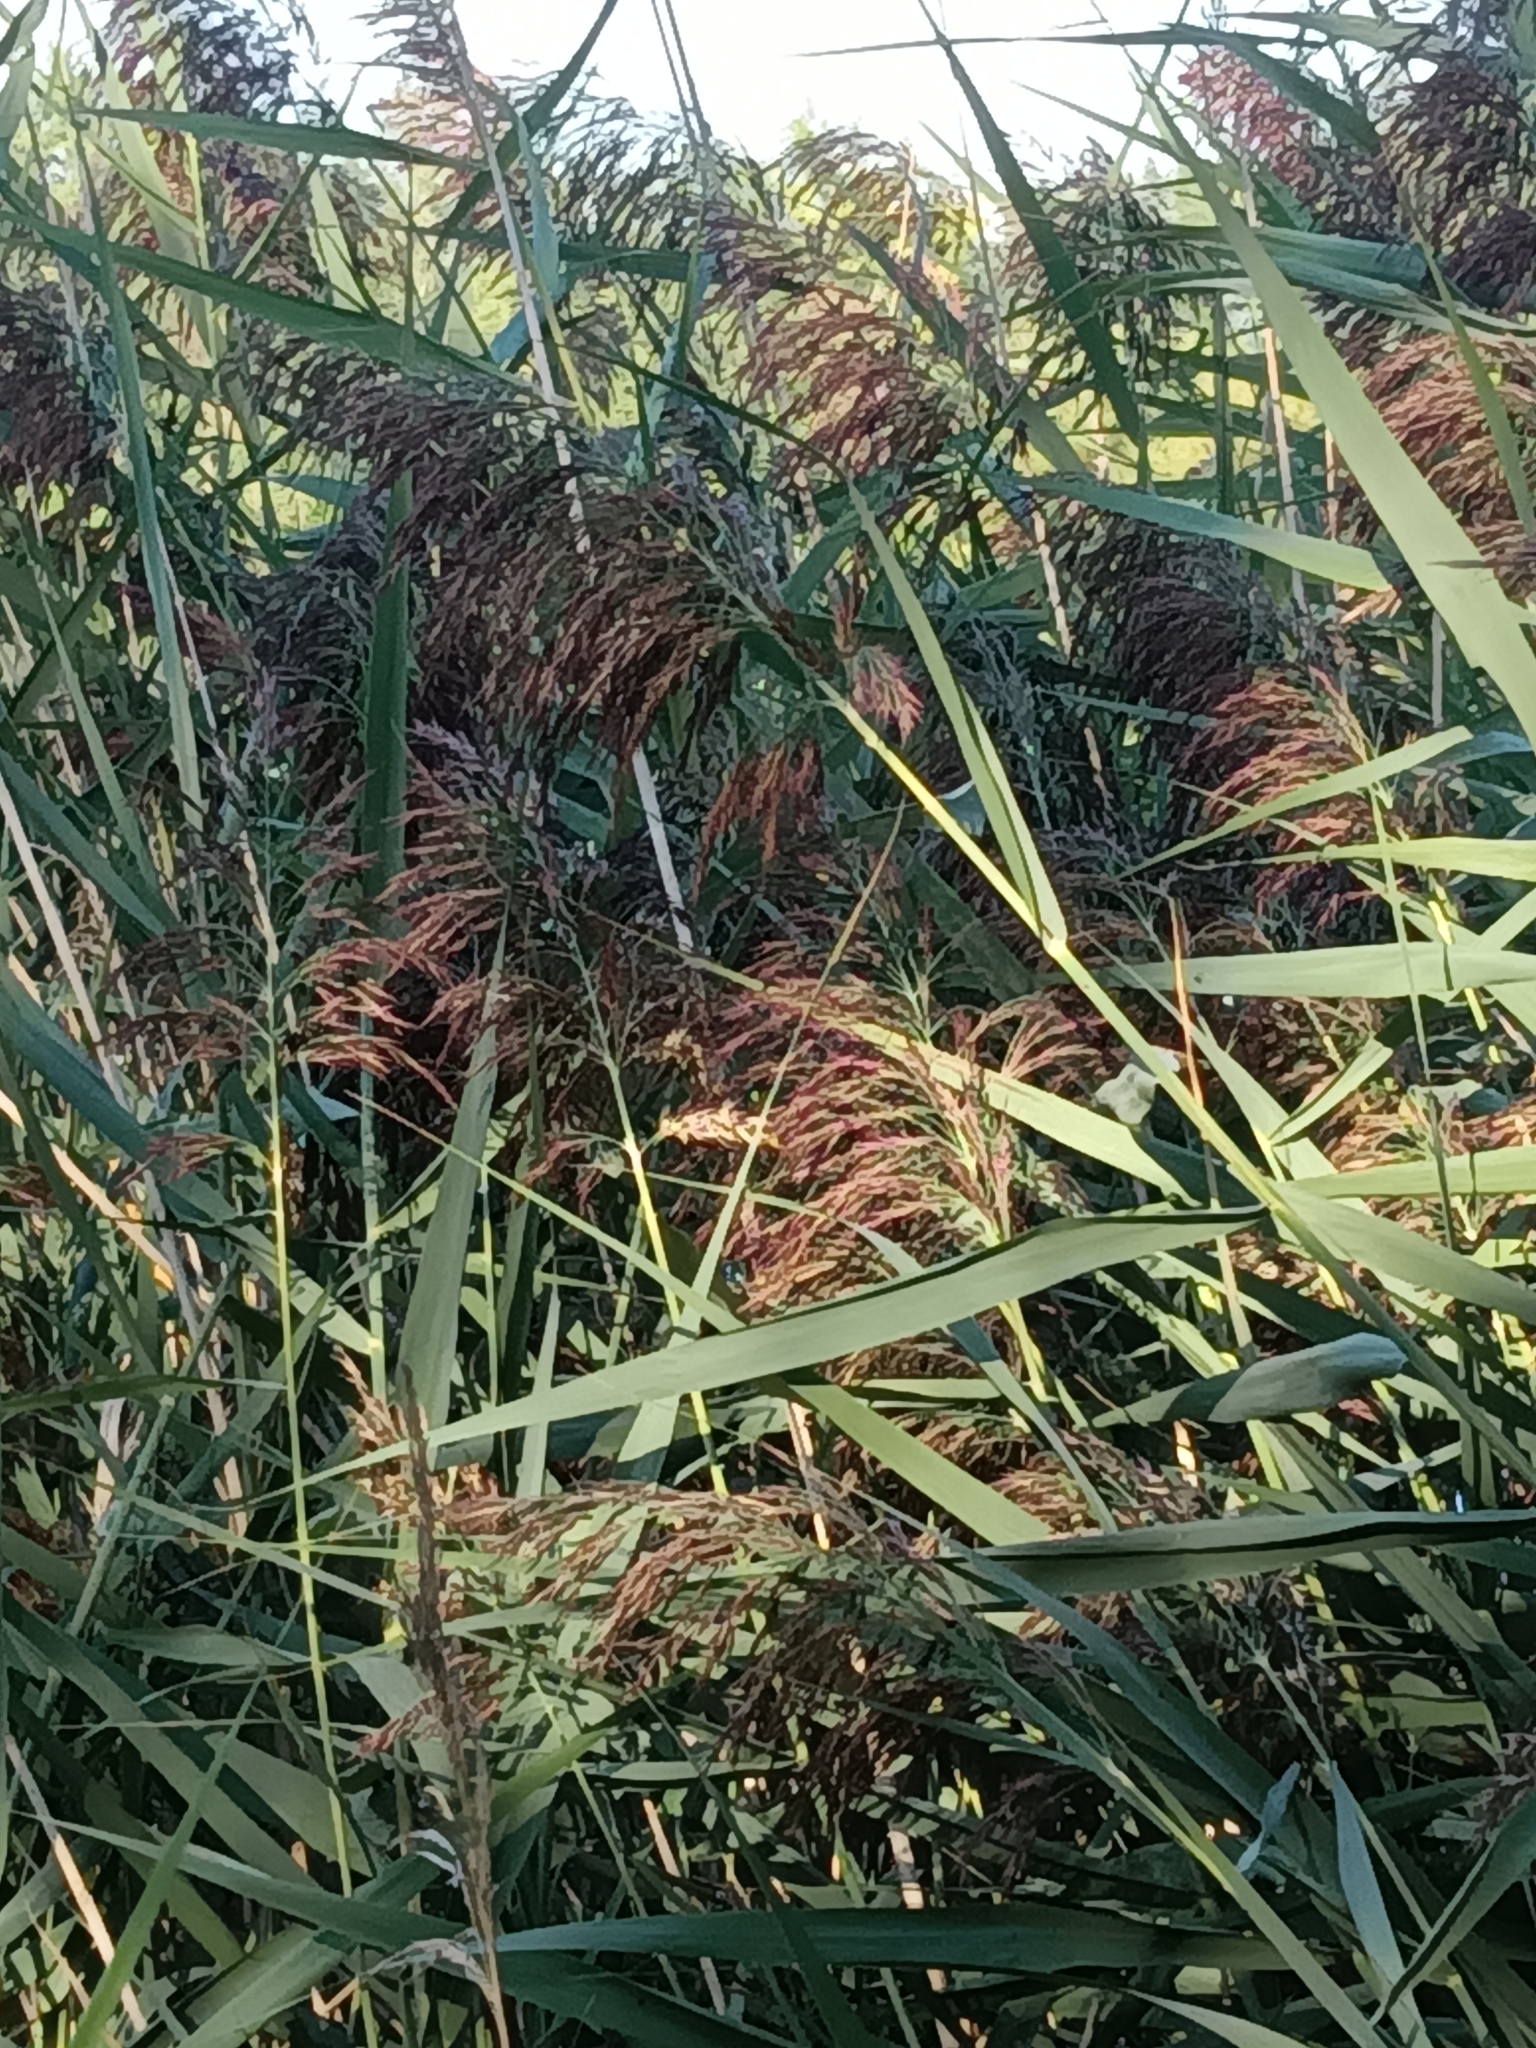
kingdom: Plantae
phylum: Tracheophyta
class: Liliopsida
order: Poales
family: Poaceae
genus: Phragmites
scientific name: Phragmites australis
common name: Common reed
